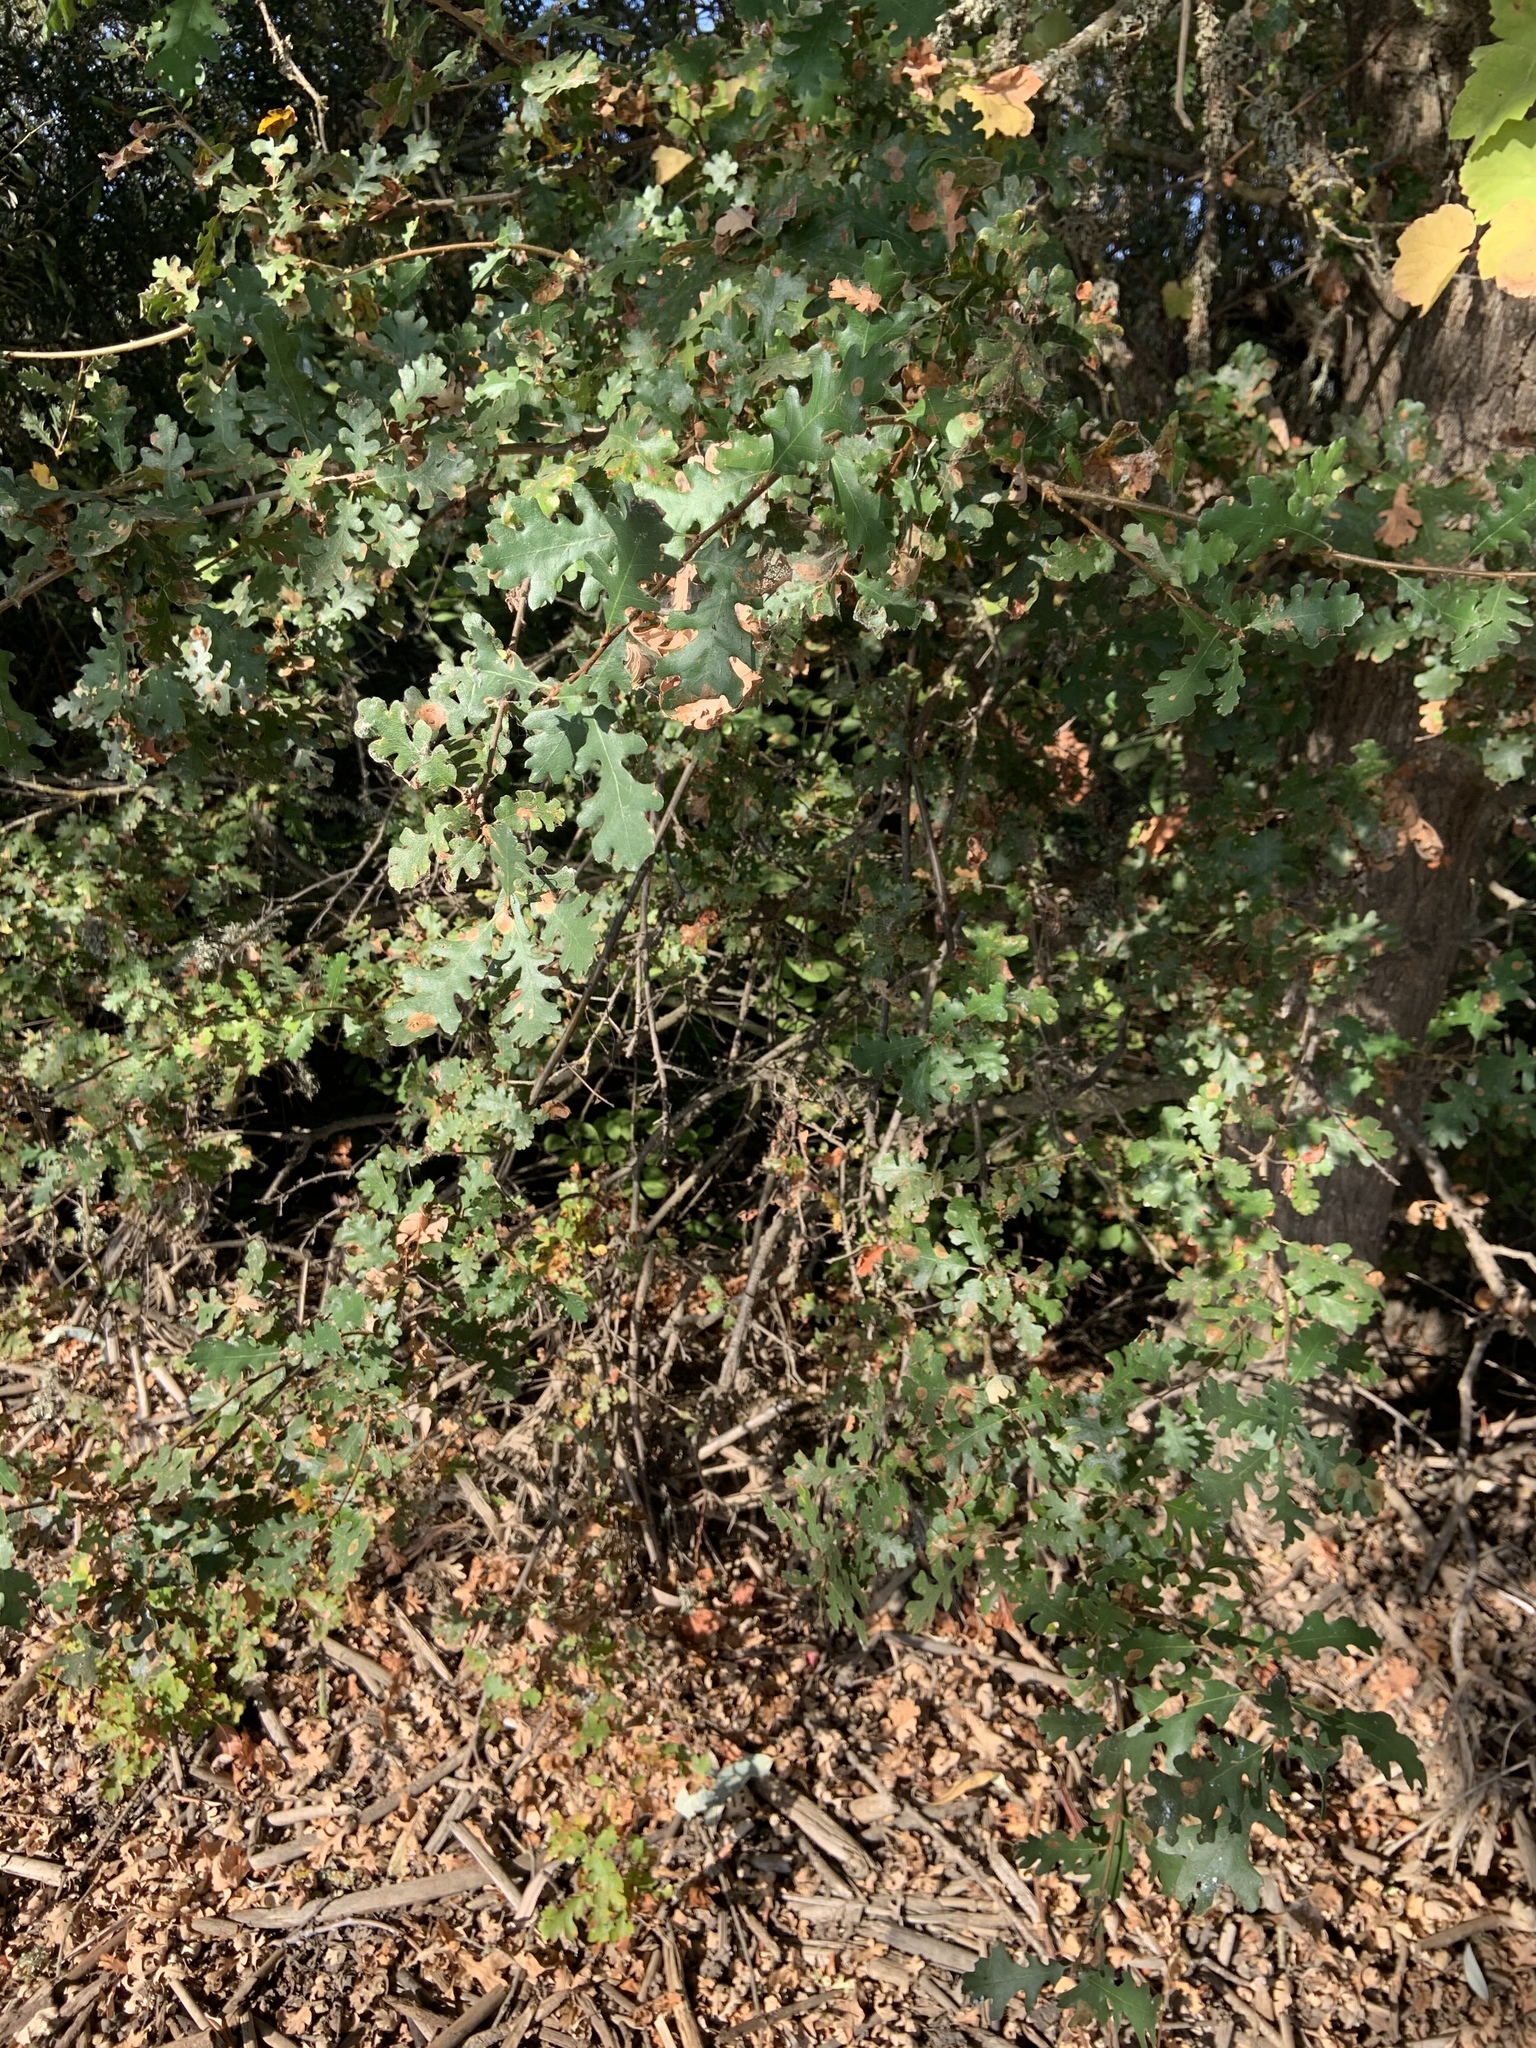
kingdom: Plantae
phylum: Tracheophyta
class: Magnoliopsida
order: Fagales
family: Fagaceae
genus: Quercus
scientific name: Quercus lobata
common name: Valley oak
